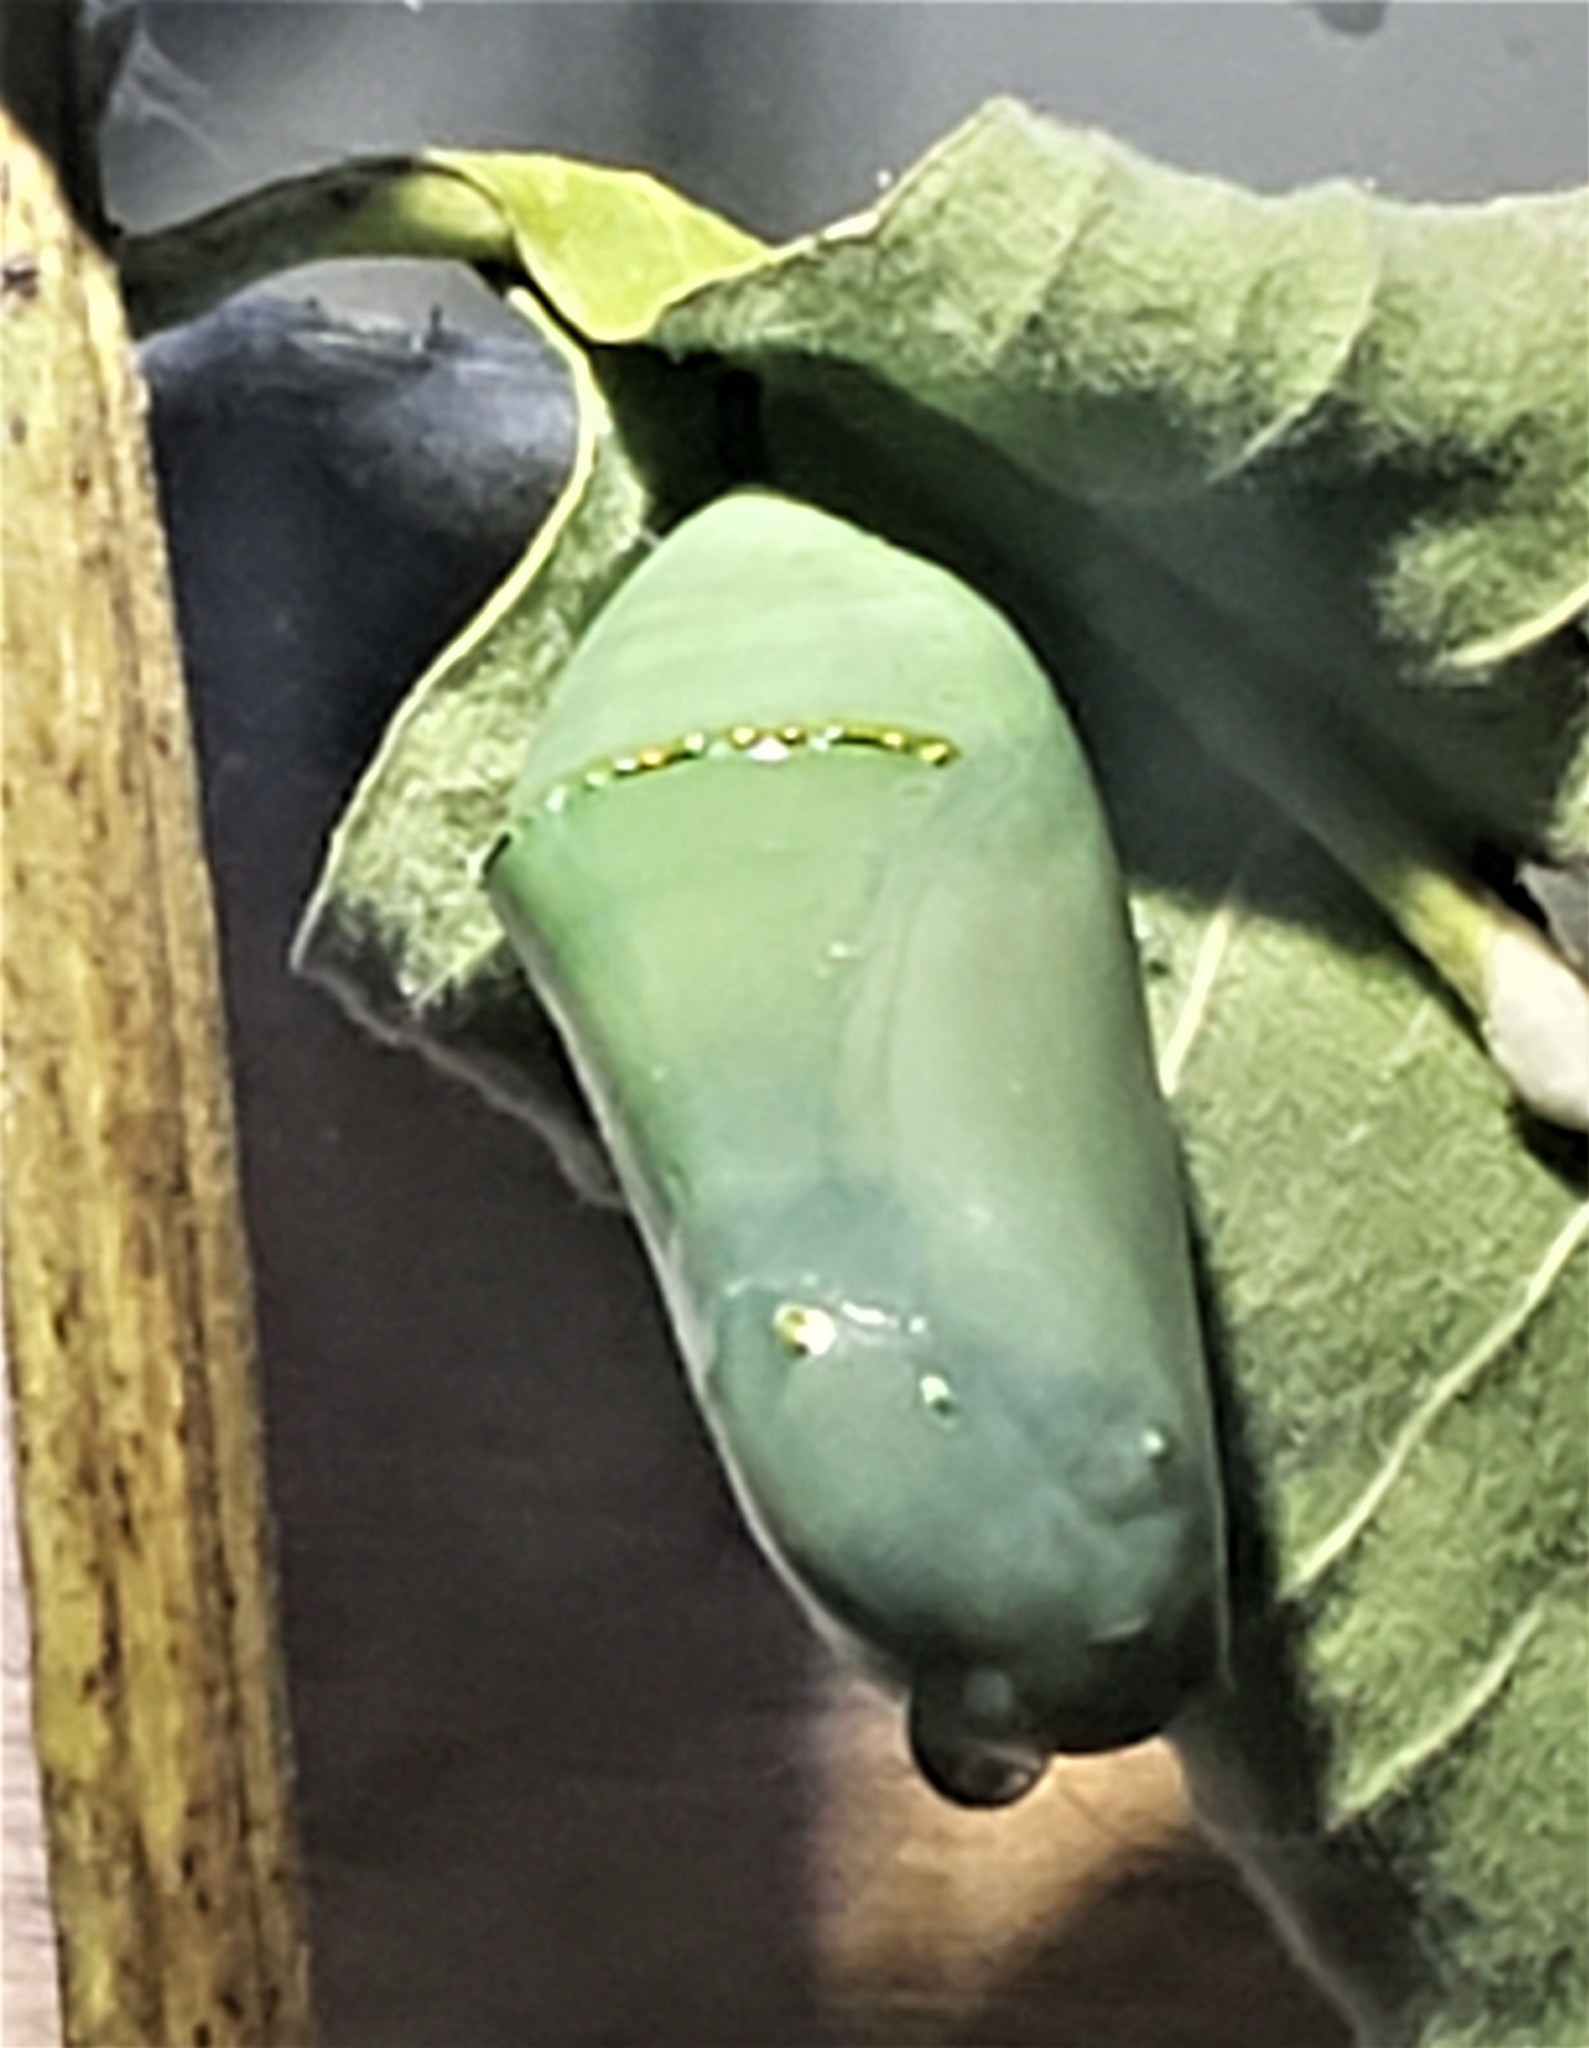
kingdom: Animalia
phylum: Arthropoda
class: Insecta
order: Lepidoptera
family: Nymphalidae
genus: Danaus
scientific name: Danaus plexippus
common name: Monarch
